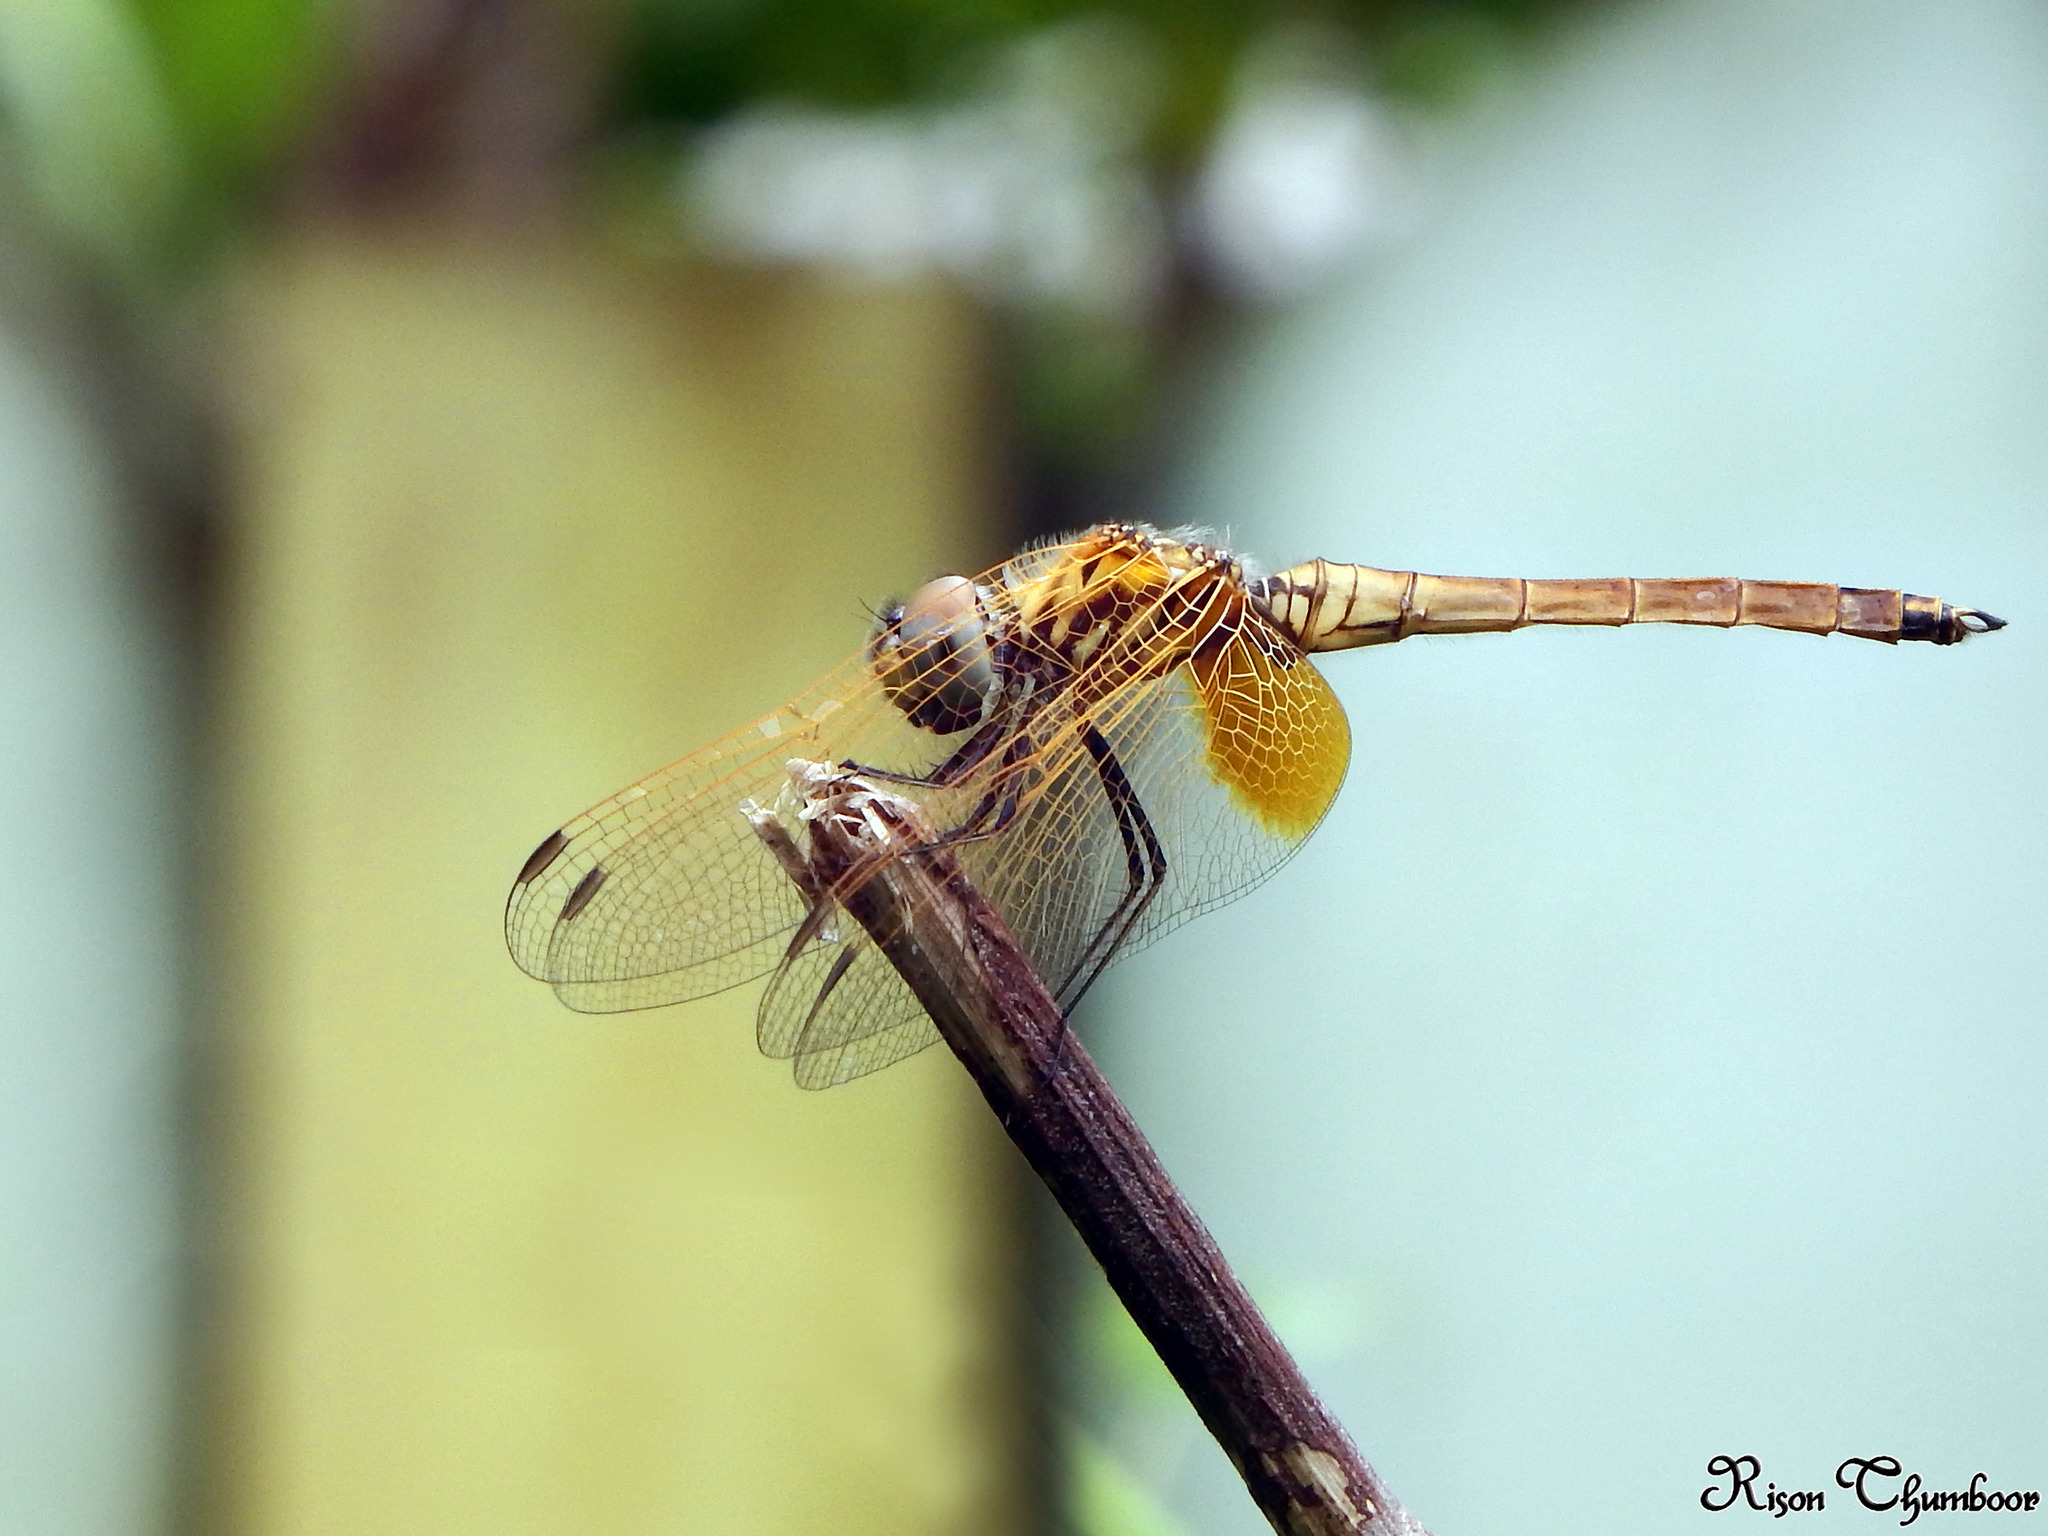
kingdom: Animalia
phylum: Arthropoda
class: Insecta
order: Odonata
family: Libellulidae
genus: Trithemis
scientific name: Trithemis aurora
